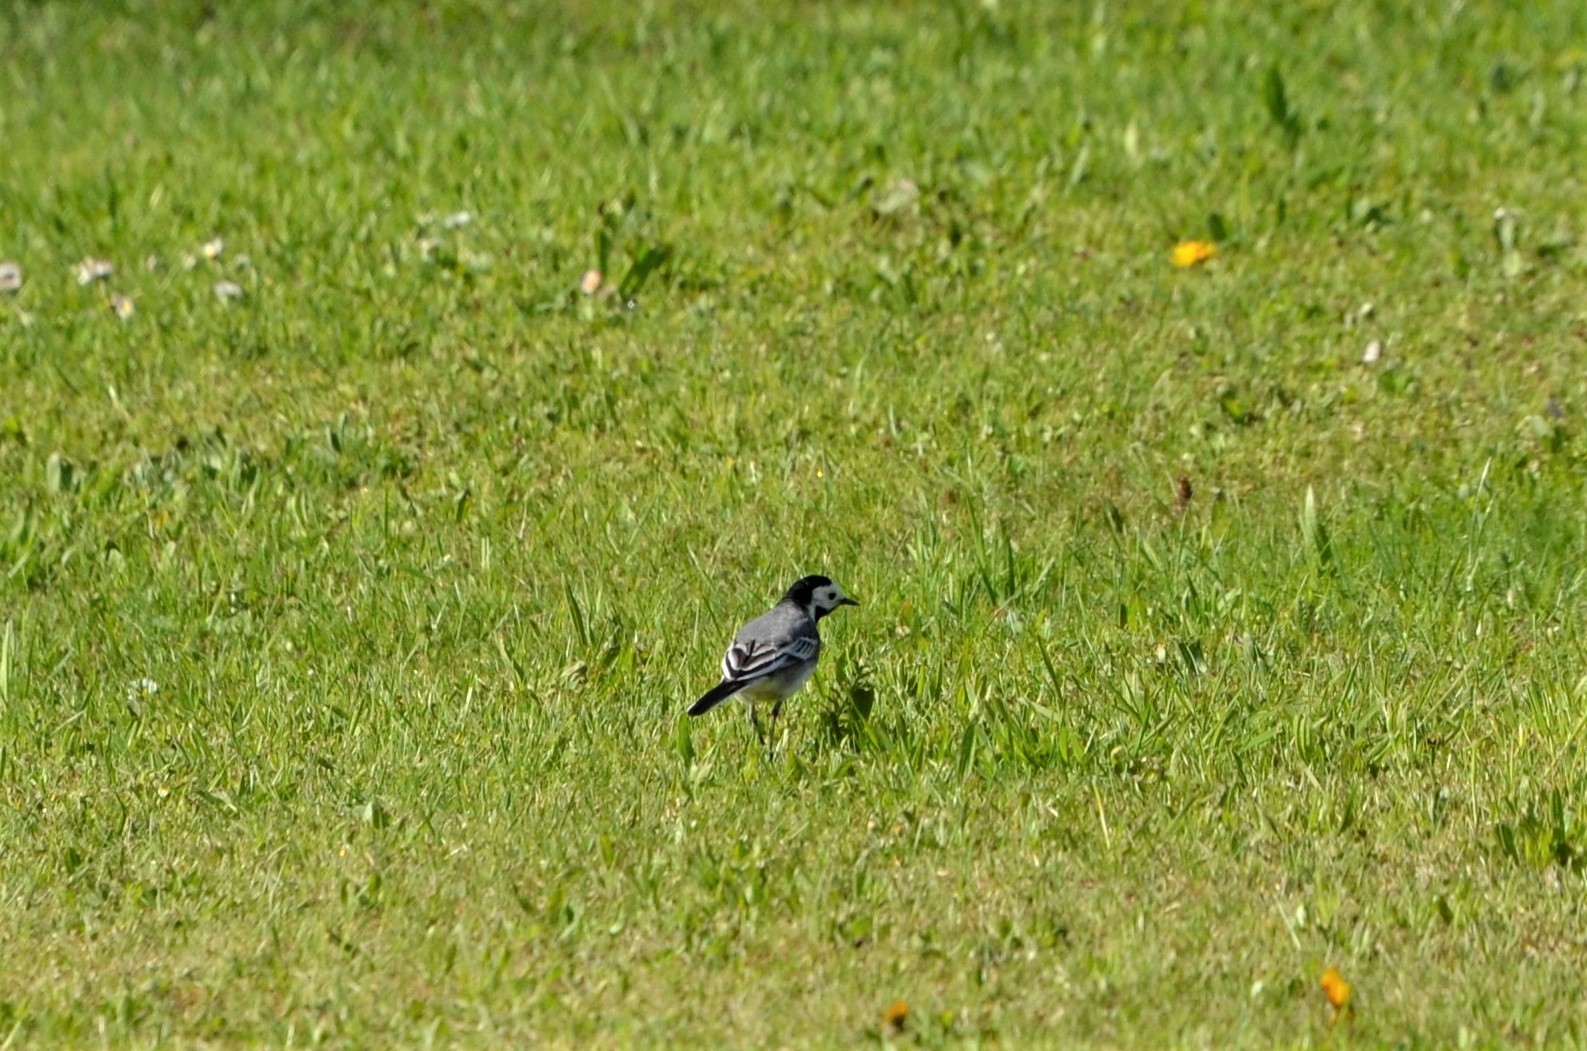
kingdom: Animalia
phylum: Chordata
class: Aves
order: Passeriformes
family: Motacillidae
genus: Motacilla
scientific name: Motacilla alba
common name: White wagtail
